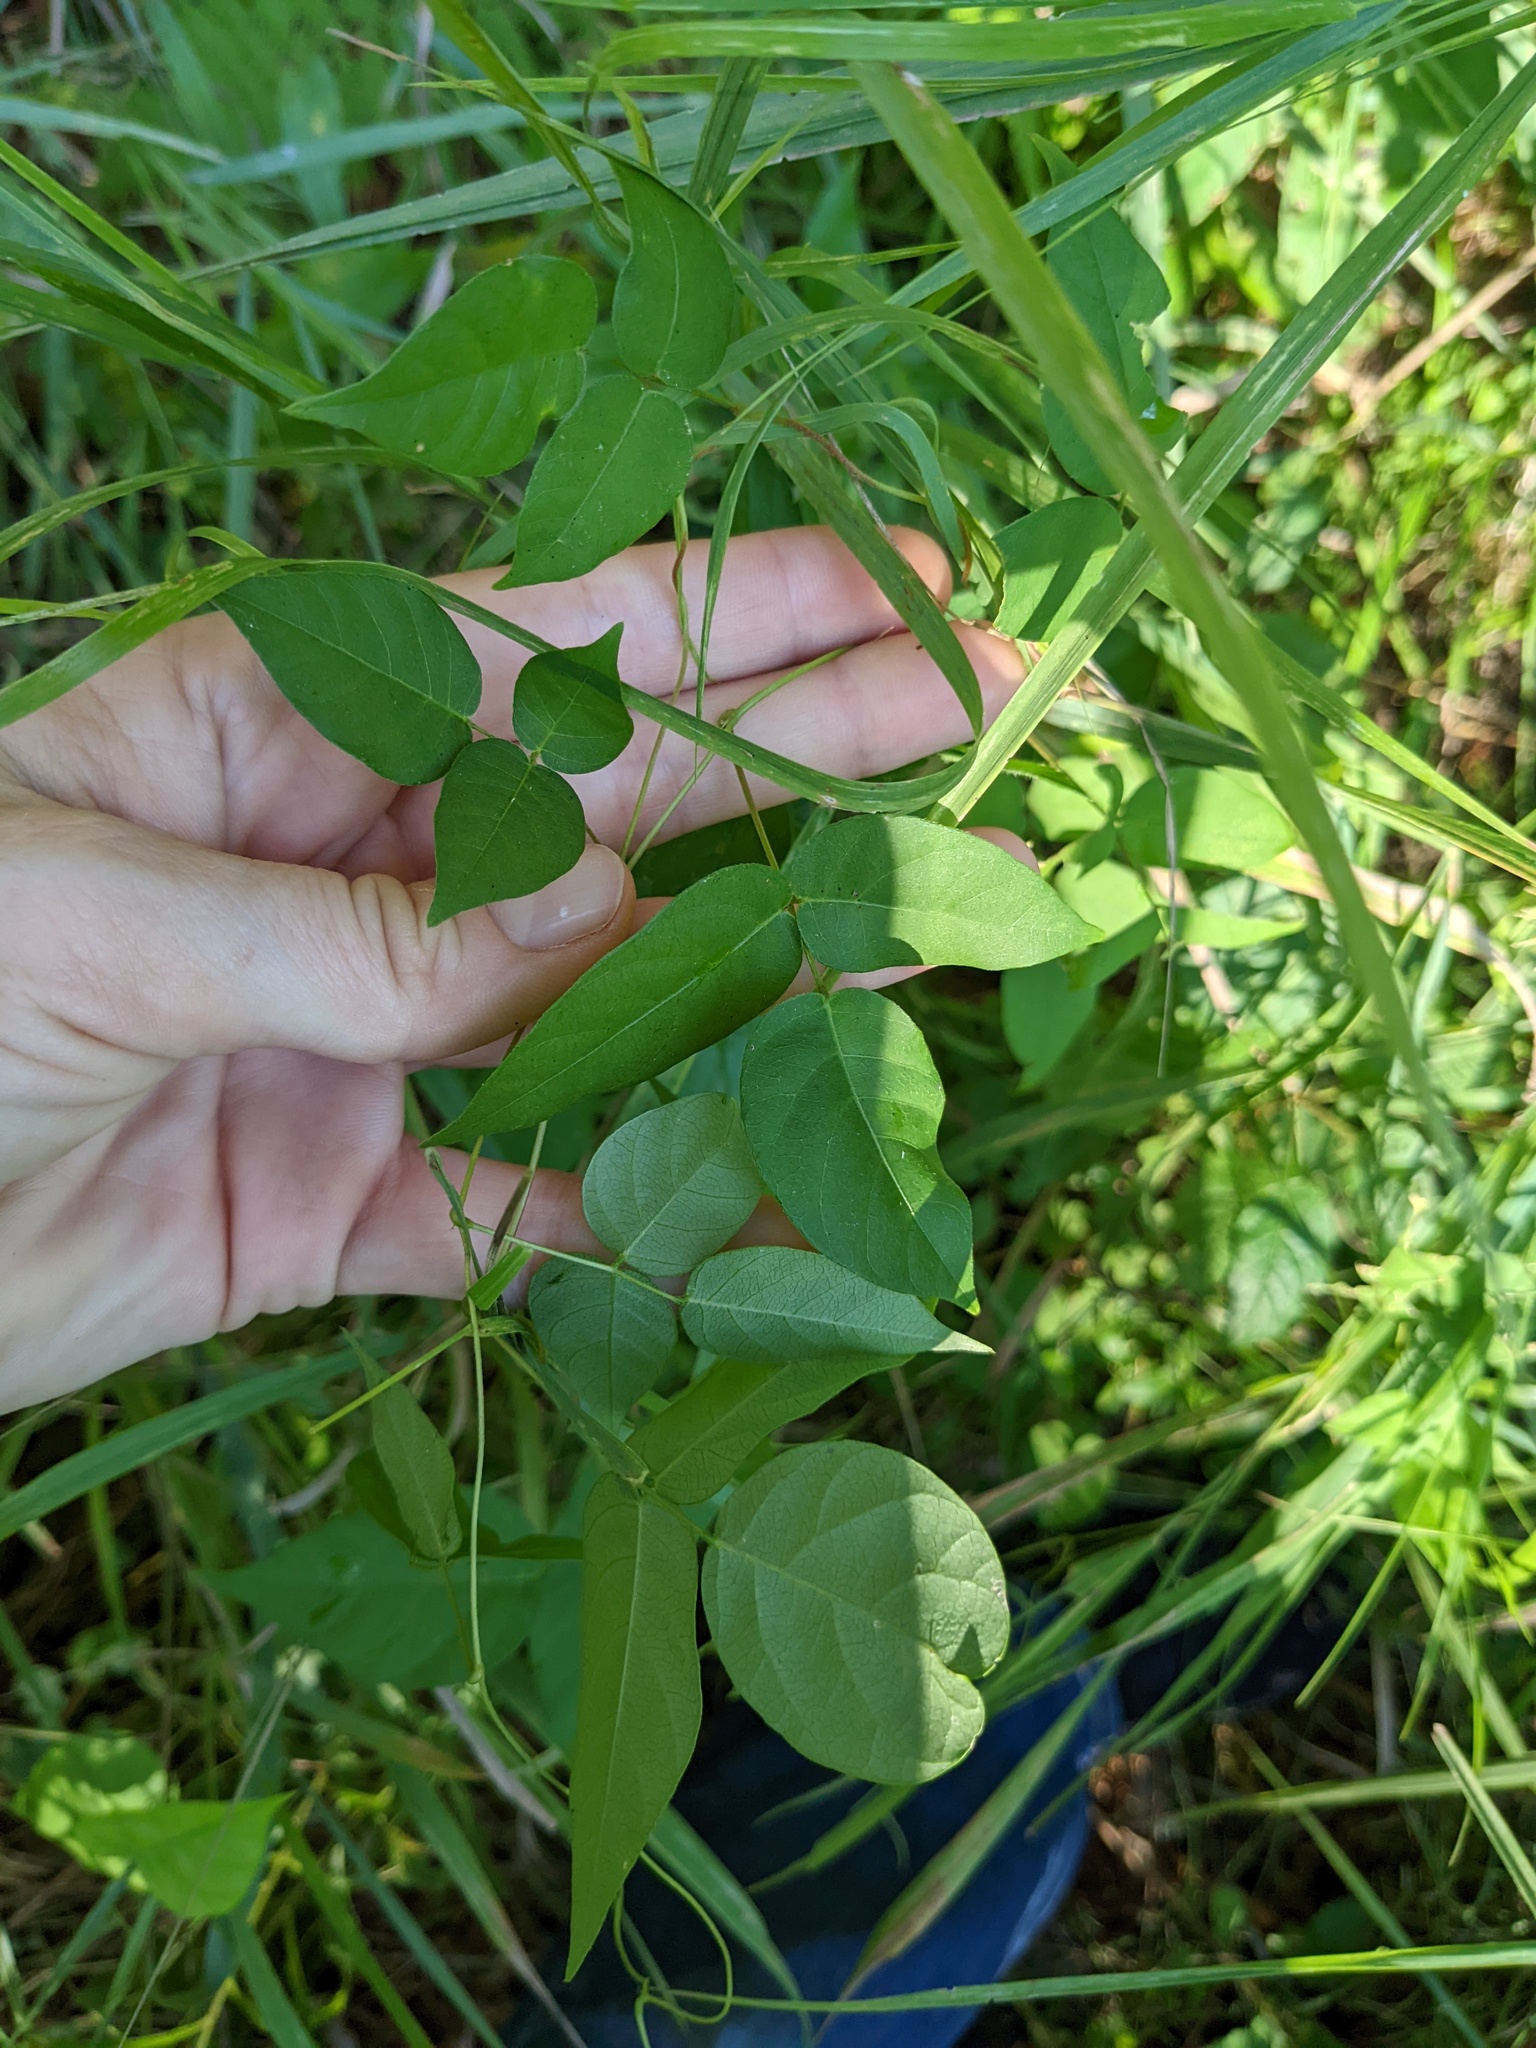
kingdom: Plantae
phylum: Tracheophyta
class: Magnoliopsida
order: Fabales
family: Fabaceae
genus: Apios
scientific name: Apios americana
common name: American potato-bean
